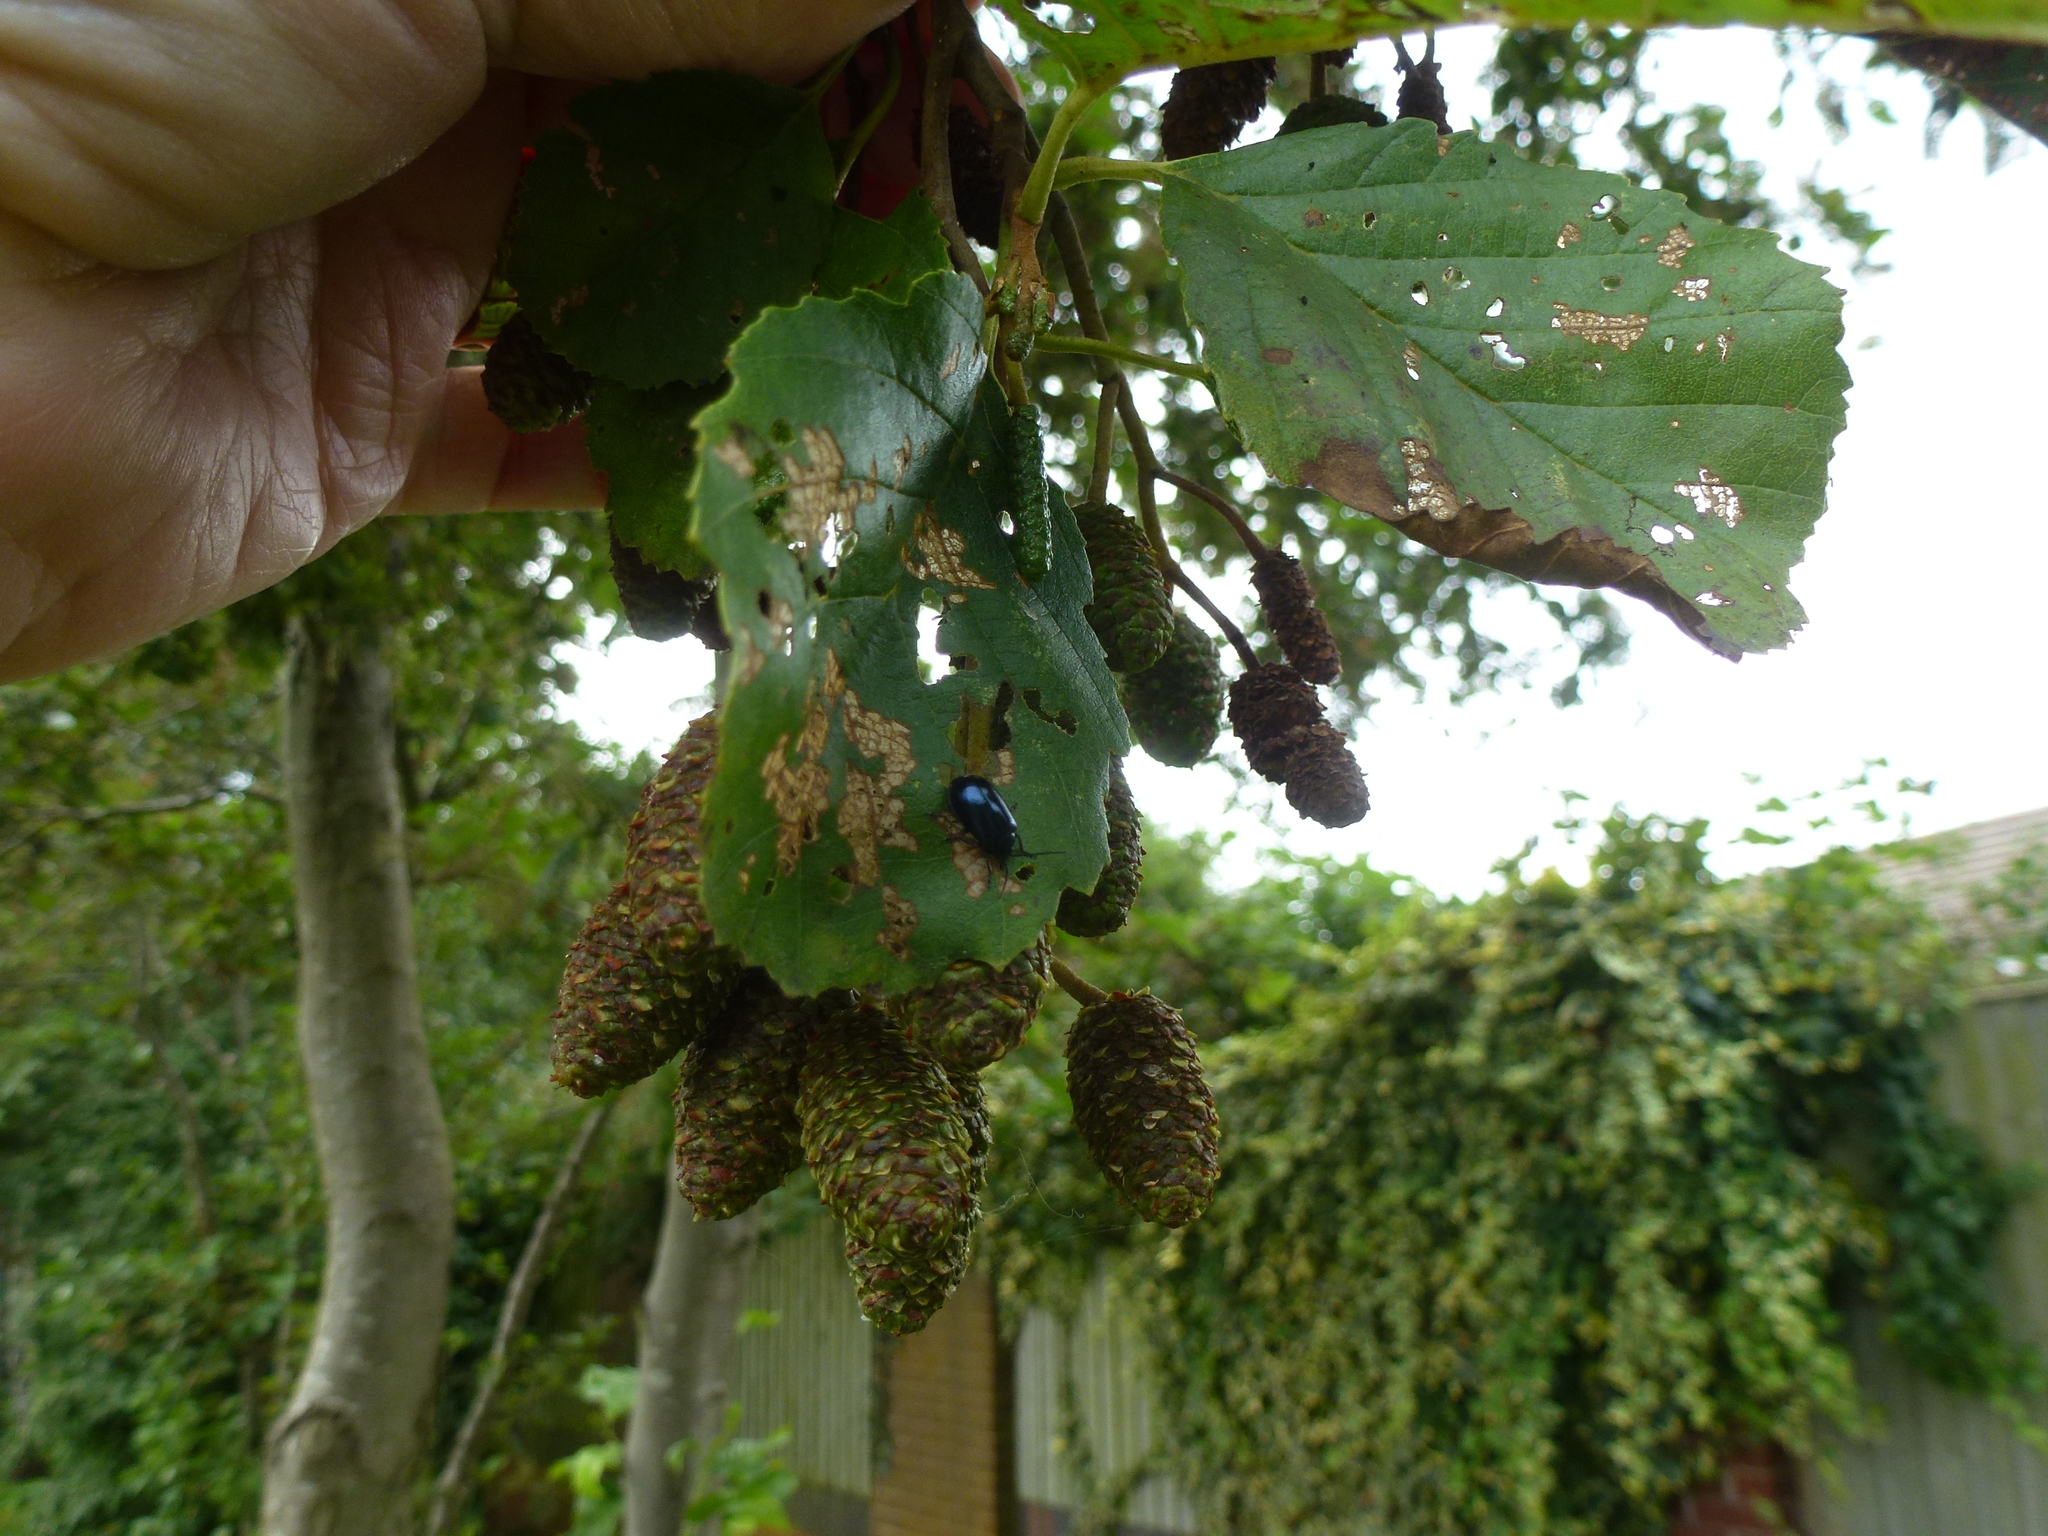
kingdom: Animalia
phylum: Arthropoda
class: Insecta
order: Coleoptera
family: Chrysomelidae
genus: Agelastica
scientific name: Agelastica alni
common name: Alder leaf beetle
